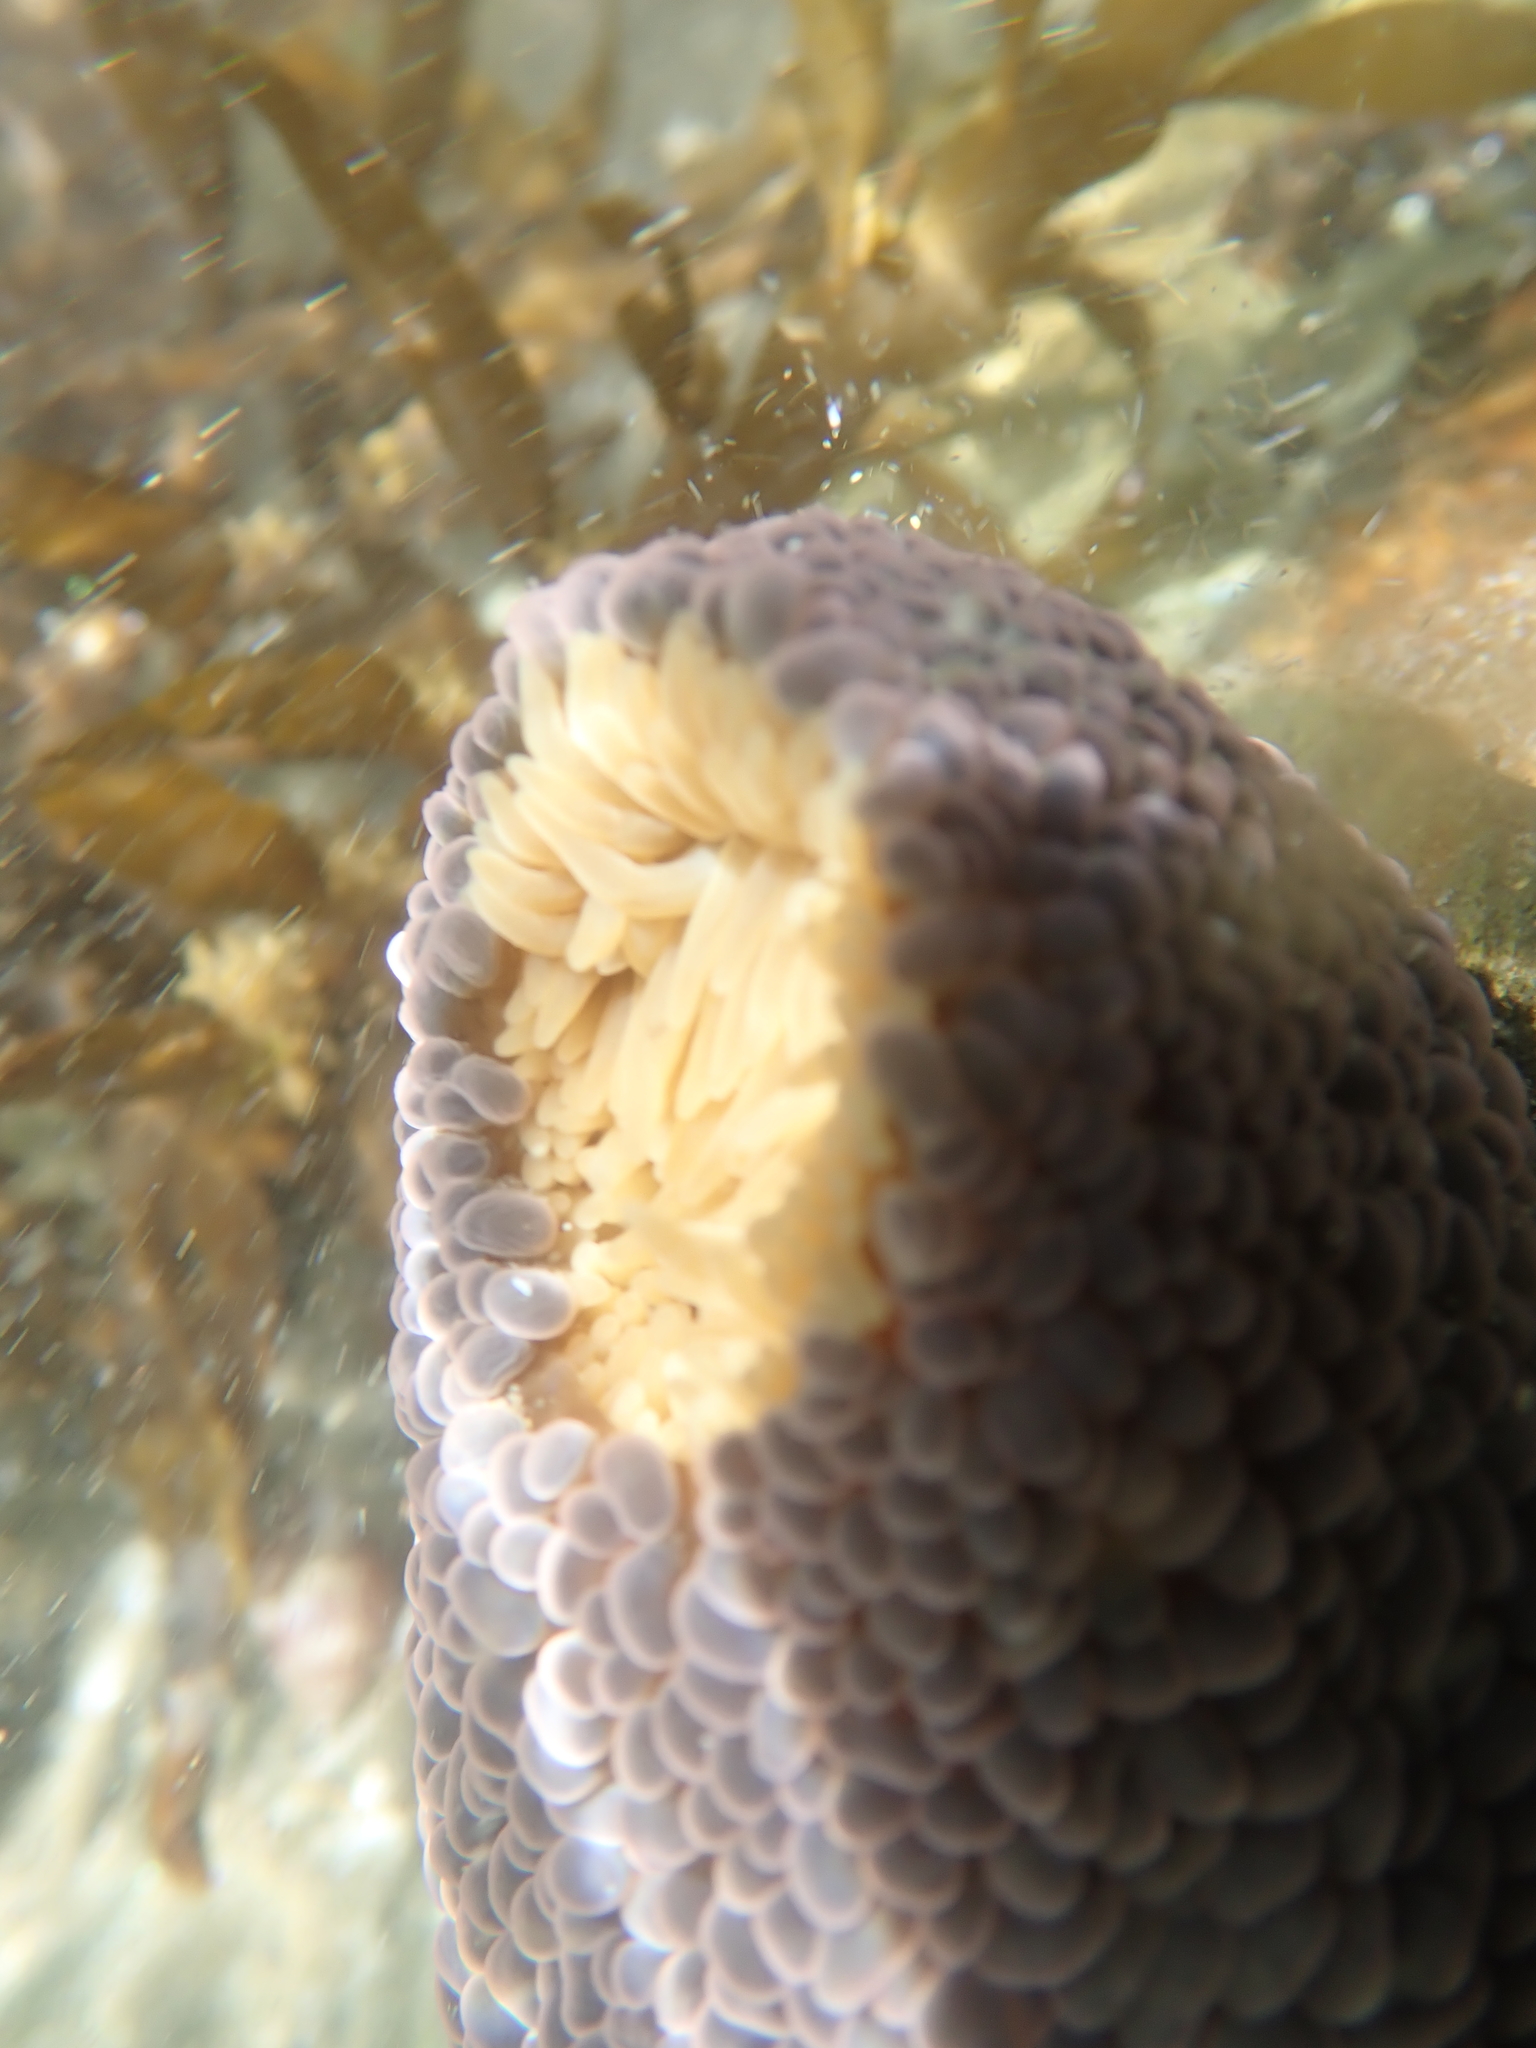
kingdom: Animalia
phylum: Cnidaria
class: Anthozoa
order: Actiniaria
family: Actiniidae
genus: Phlyctenactis
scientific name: Phlyctenactis tuberculosa
